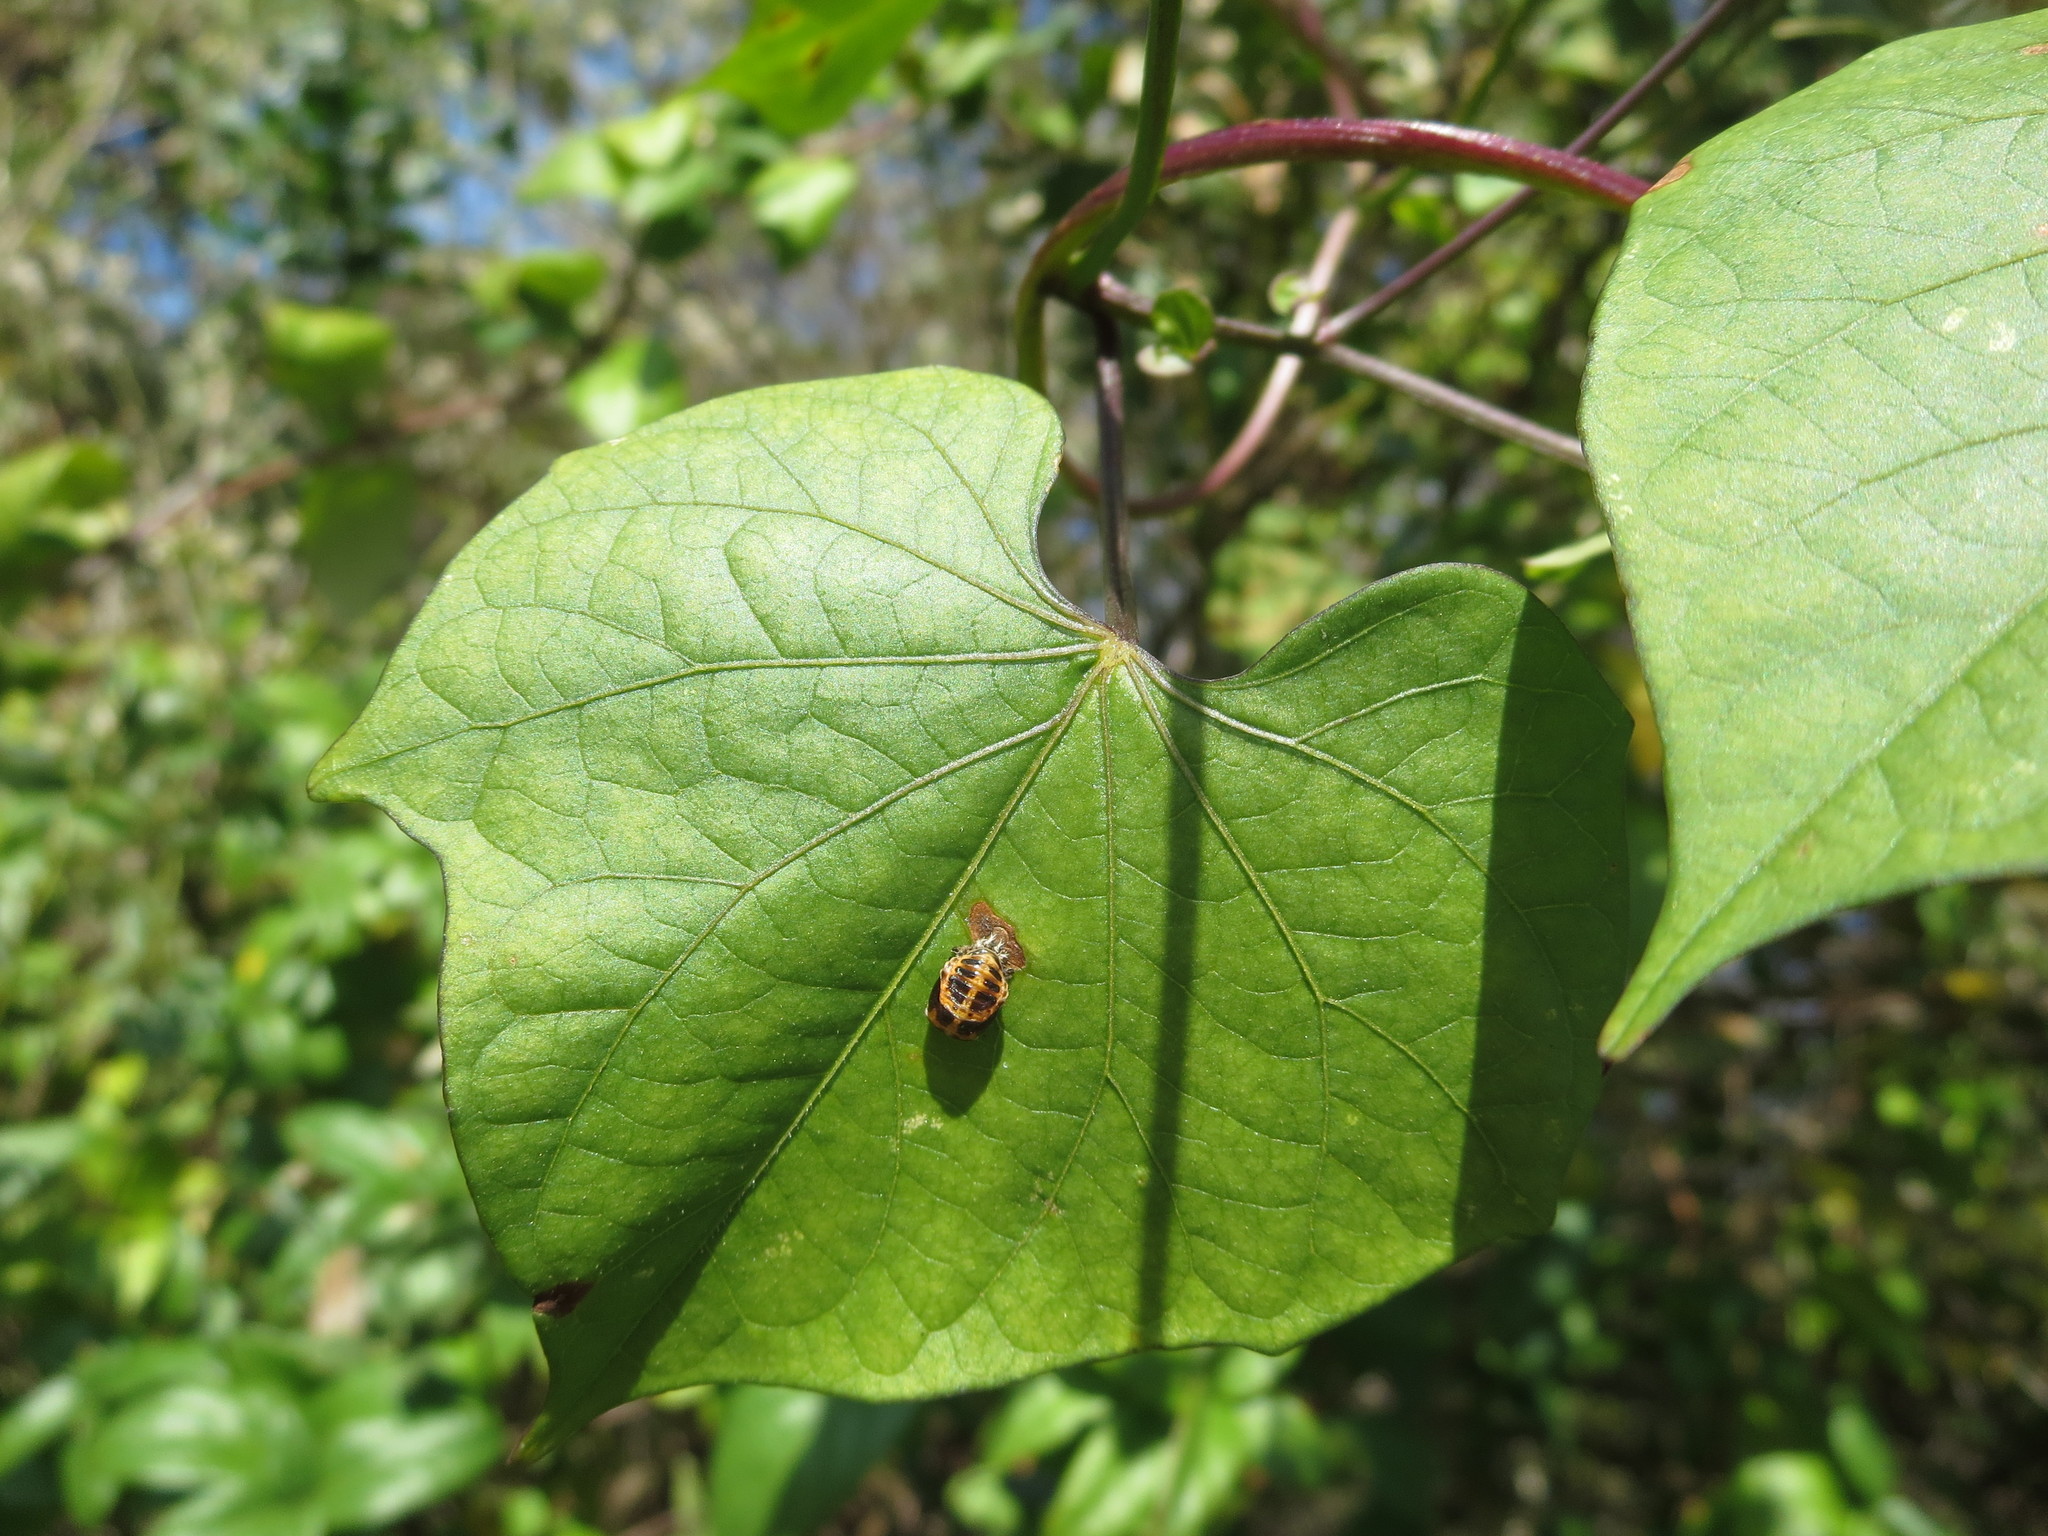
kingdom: Animalia
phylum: Arthropoda
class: Insecta
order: Coleoptera
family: Coccinellidae
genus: Harmonia
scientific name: Harmonia axyridis
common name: Harlequin ladybird
